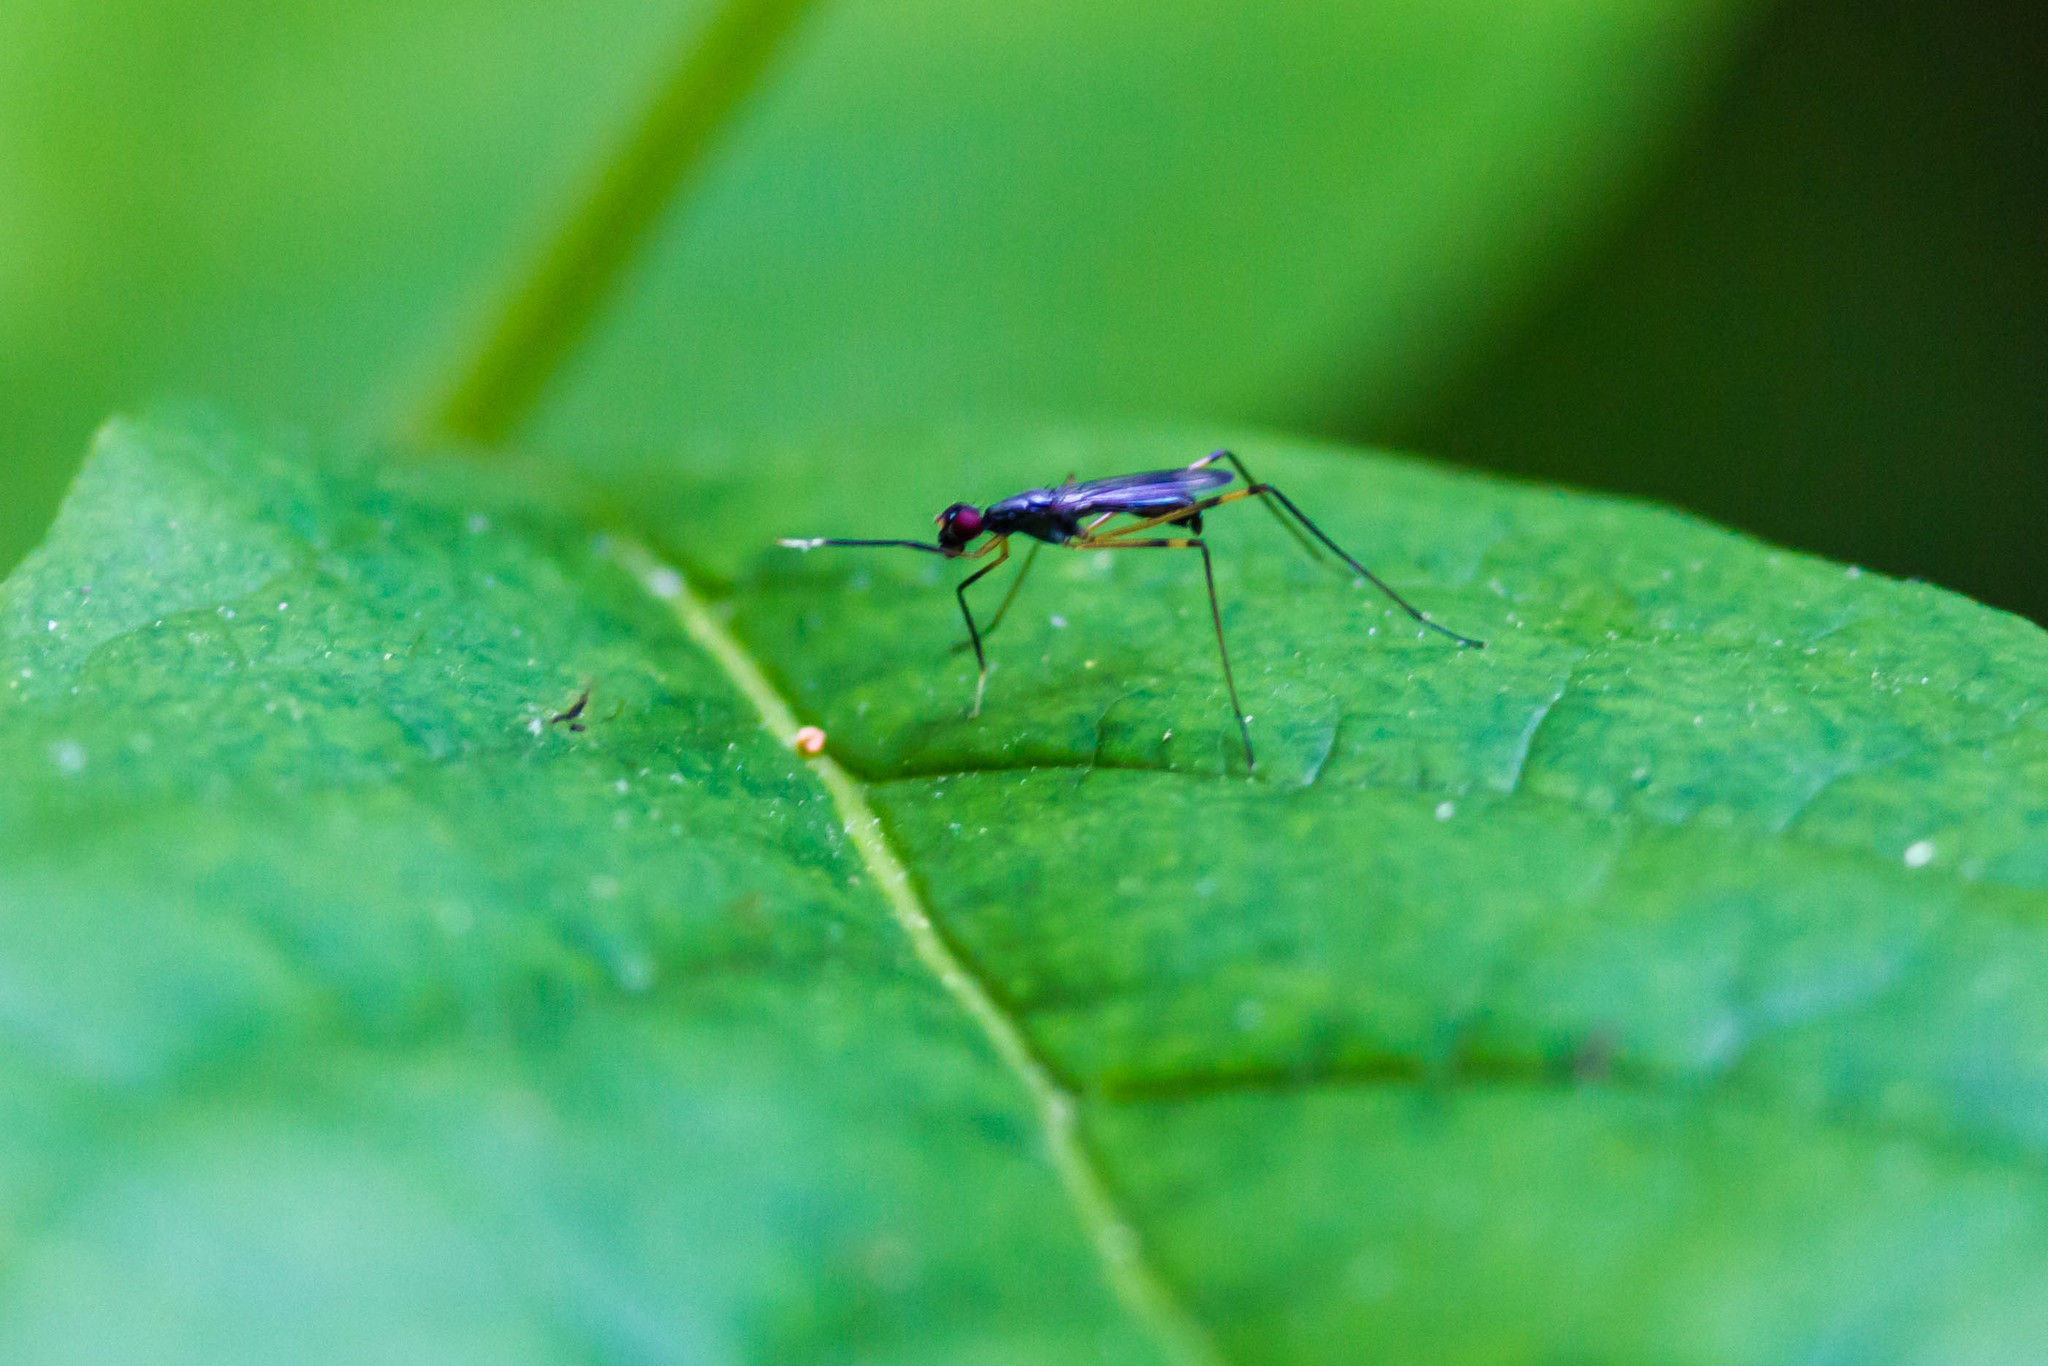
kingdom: Animalia
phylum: Arthropoda
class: Insecta
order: Diptera
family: Micropezidae
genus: Rainieria
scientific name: Rainieria antennaepes
